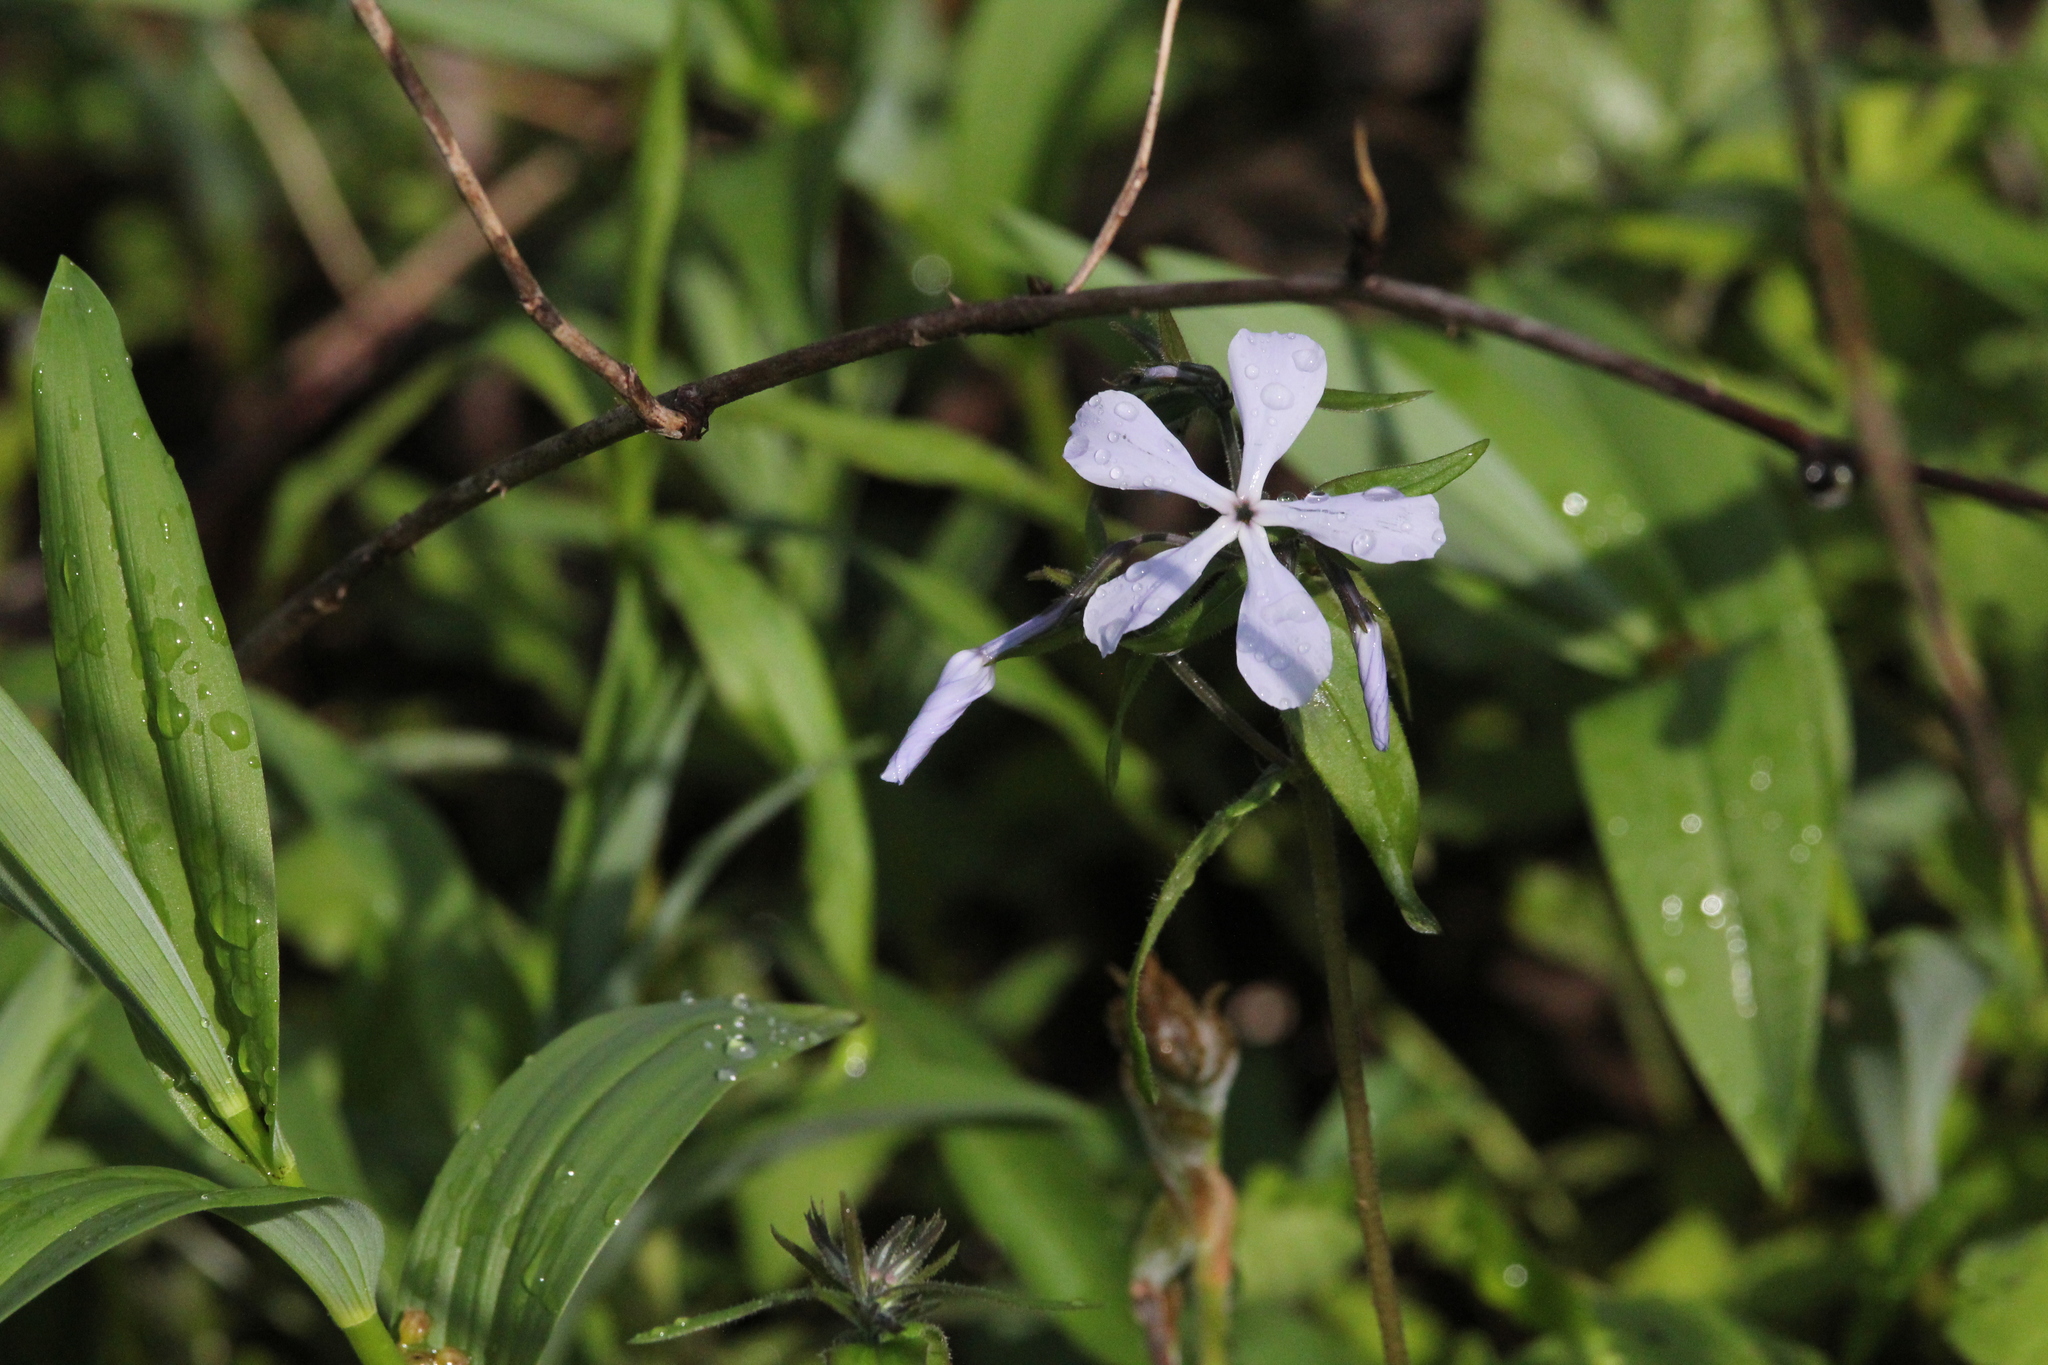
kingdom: Plantae
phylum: Tracheophyta
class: Magnoliopsida
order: Ericales
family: Polemoniaceae
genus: Phlox
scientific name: Phlox divaricata
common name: Blue phlox
